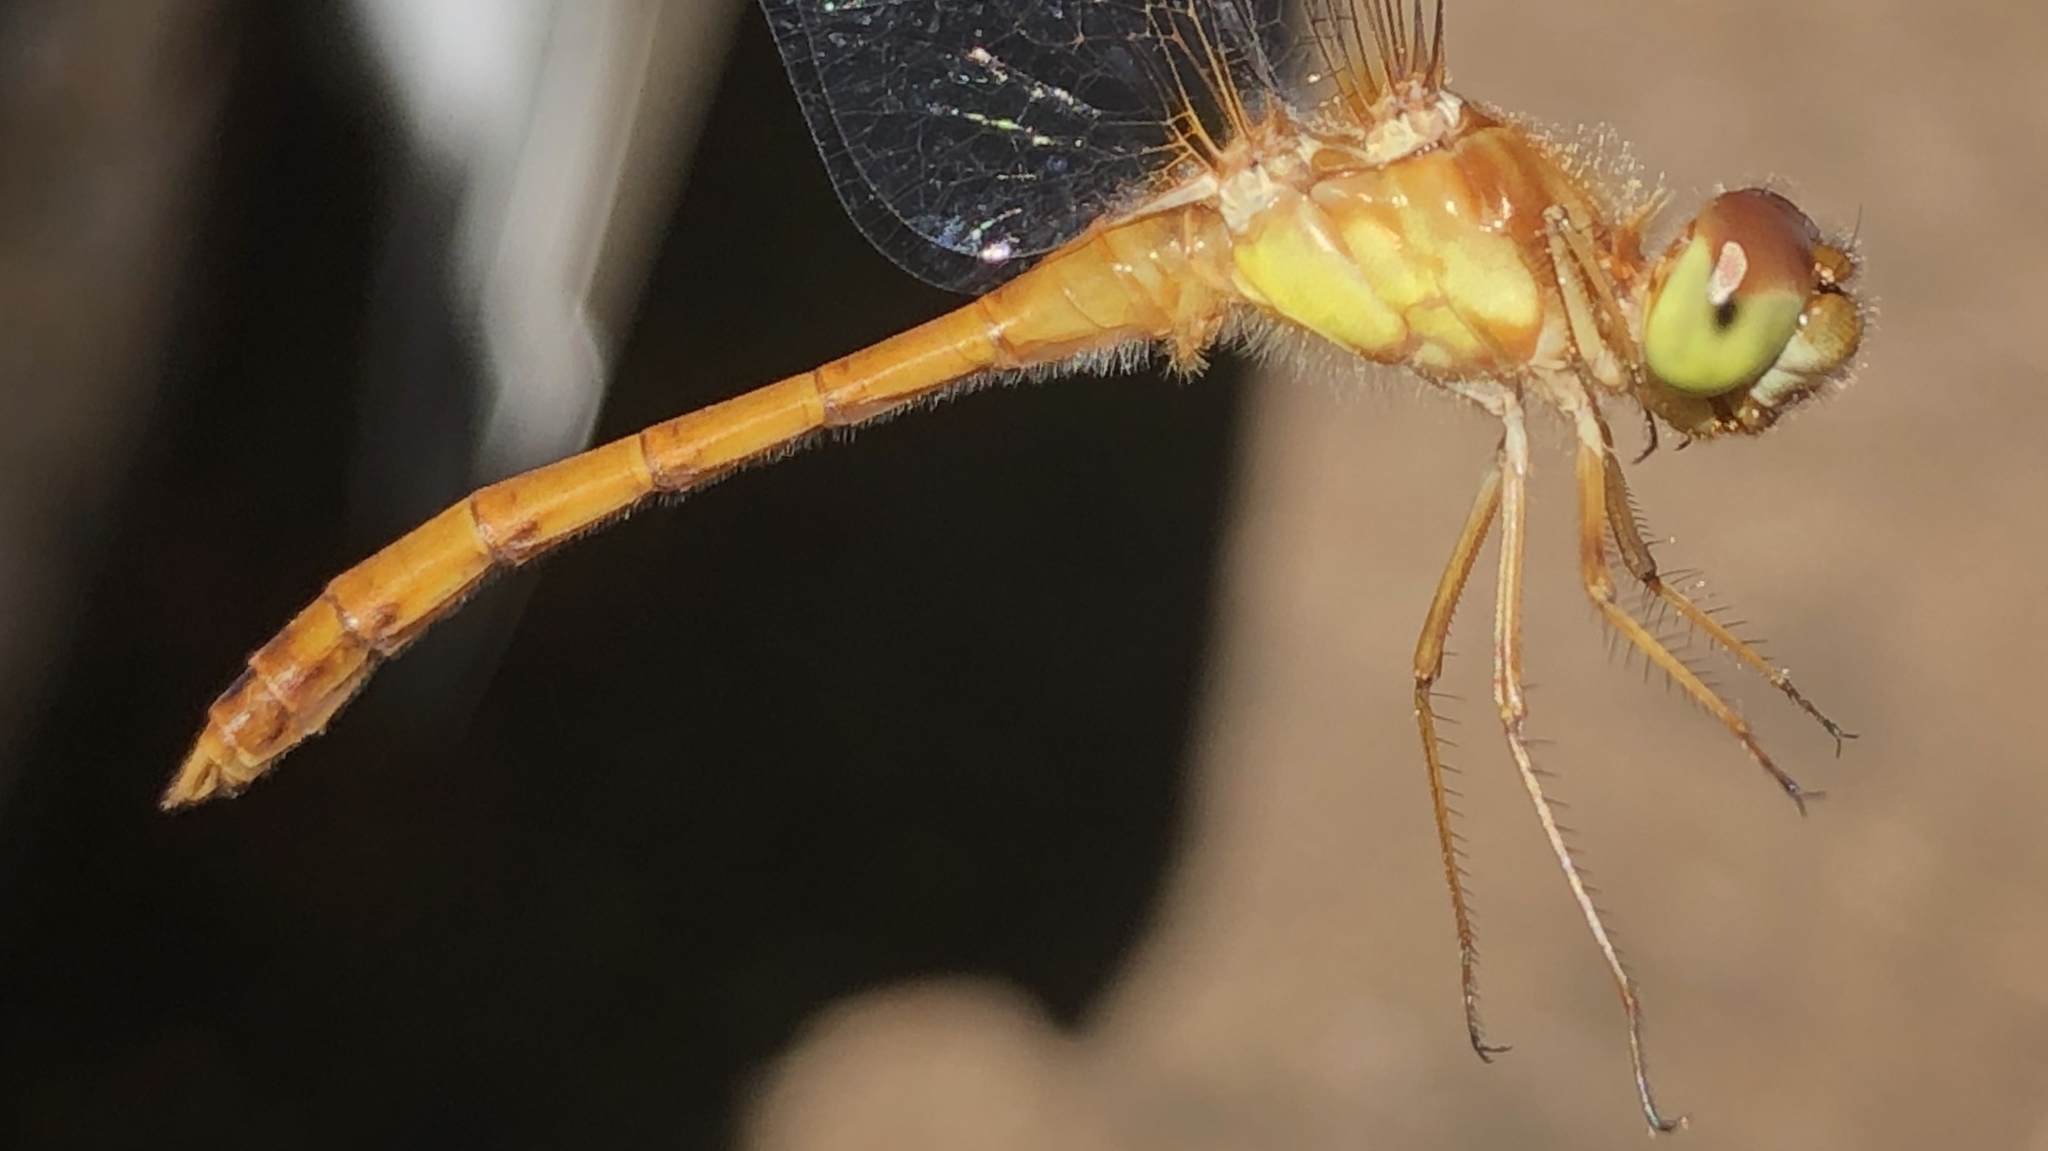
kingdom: Animalia
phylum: Arthropoda
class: Insecta
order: Odonata
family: Libellulidae
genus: Sympetrum
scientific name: Sympetrum vicinum
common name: Autumn meadowhawk
